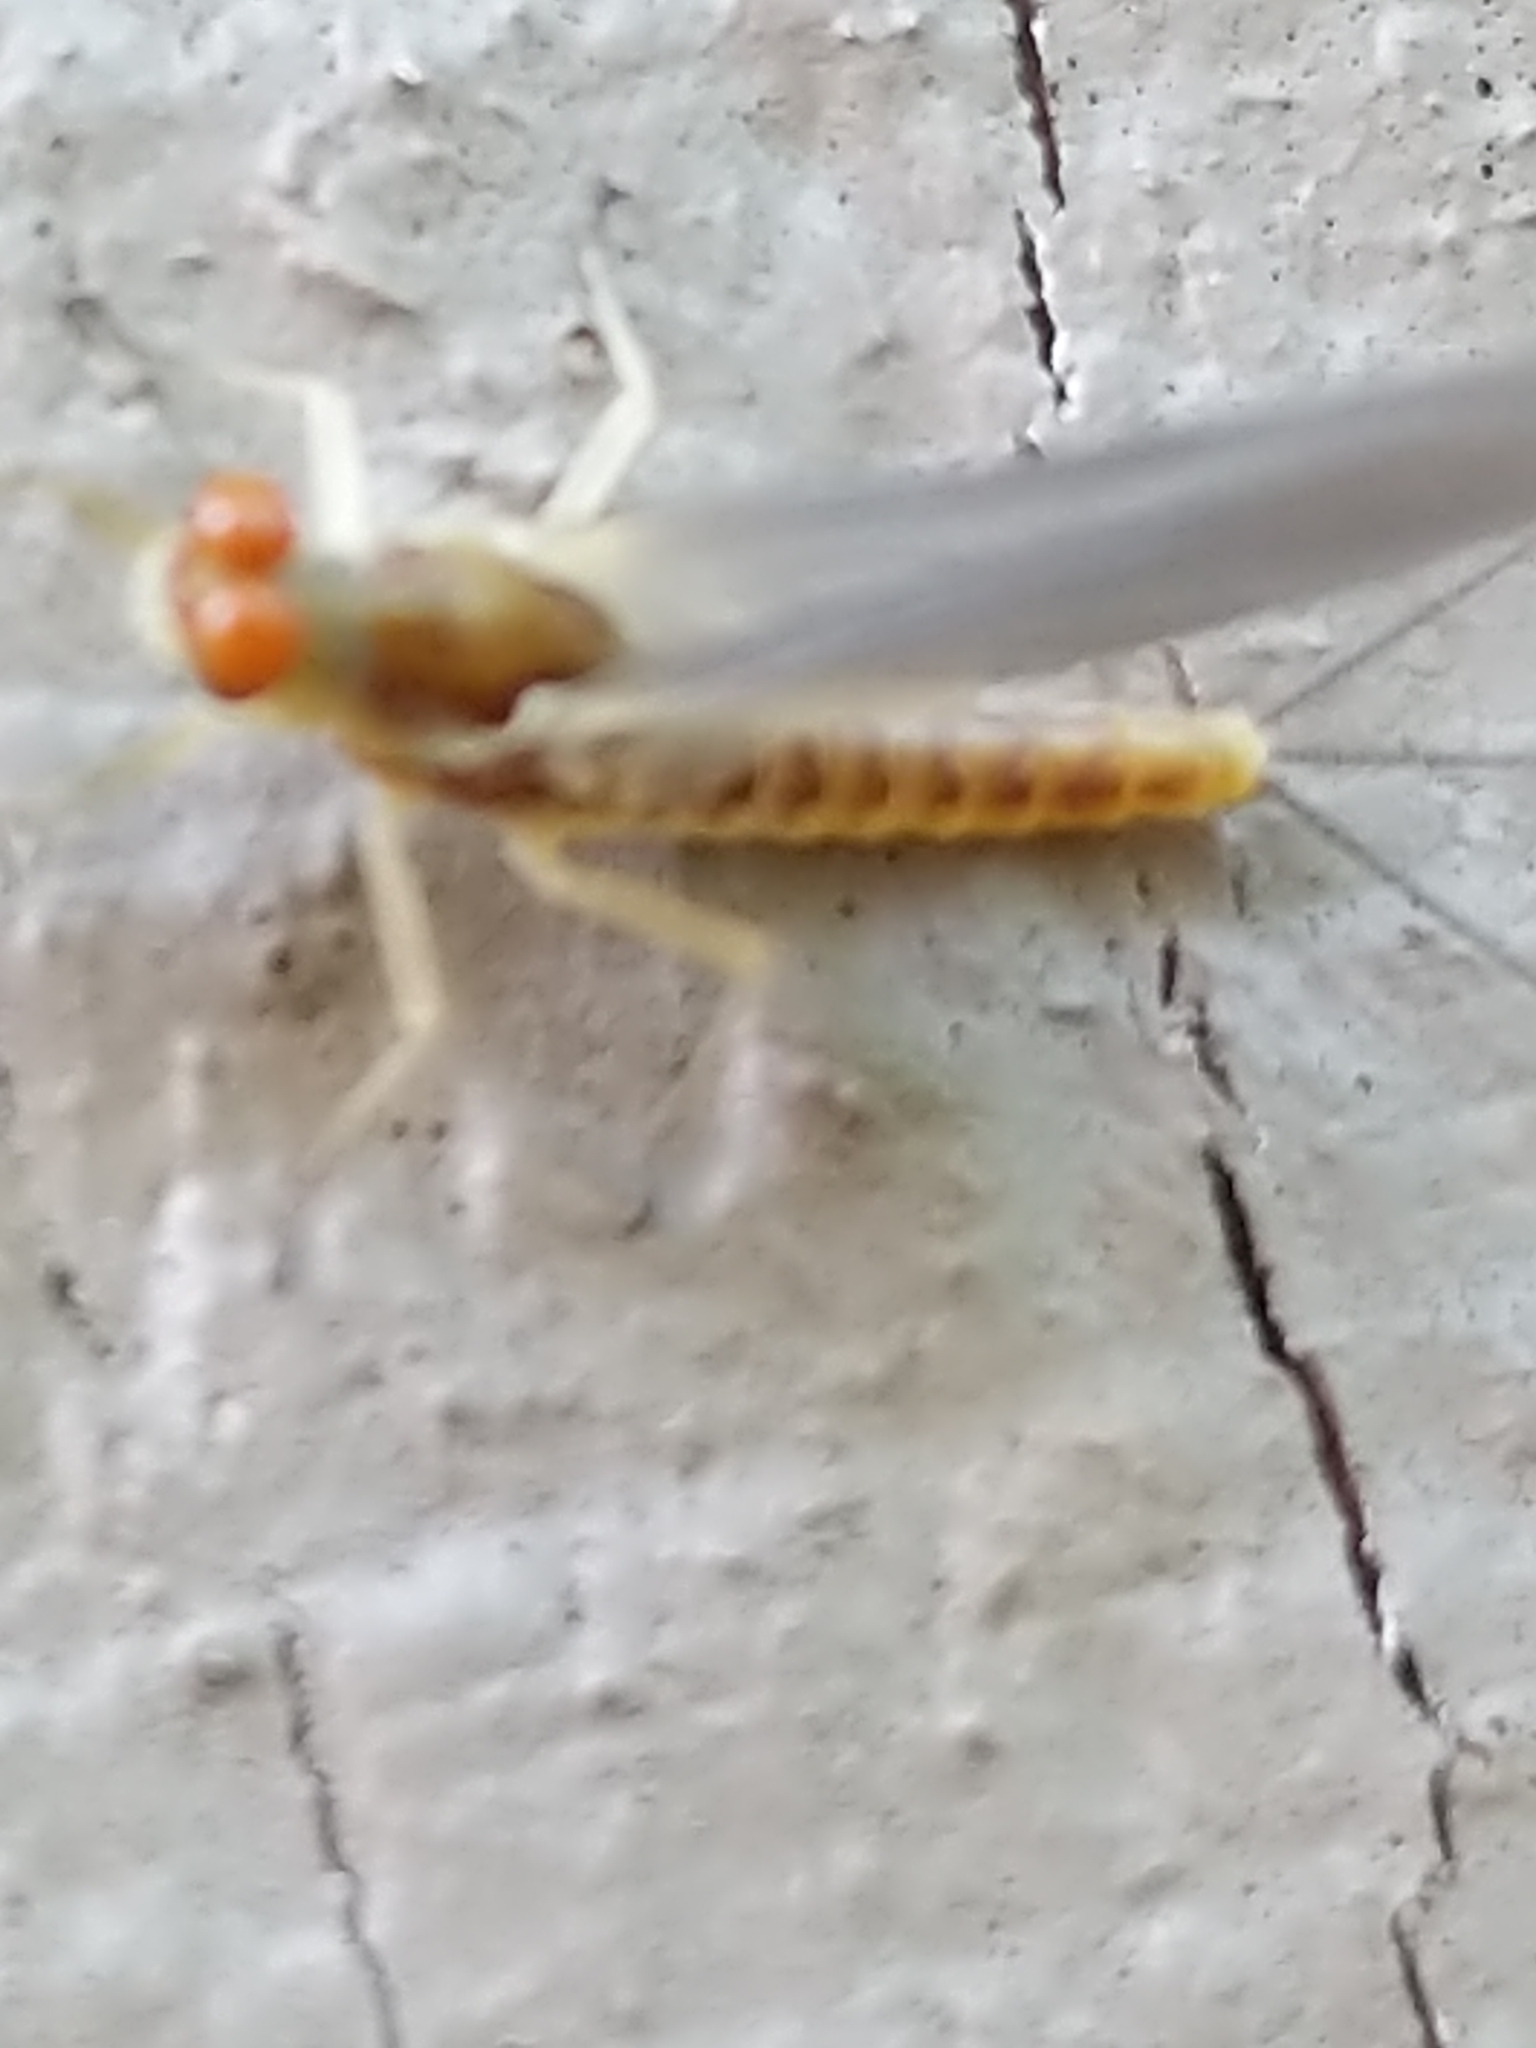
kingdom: Animalia
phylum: Arthropoda
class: Insecta
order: Ephemeroptera
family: Ephemerellidae
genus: Ephemerella
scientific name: Ephemerella invaria
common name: Sulphur dun
